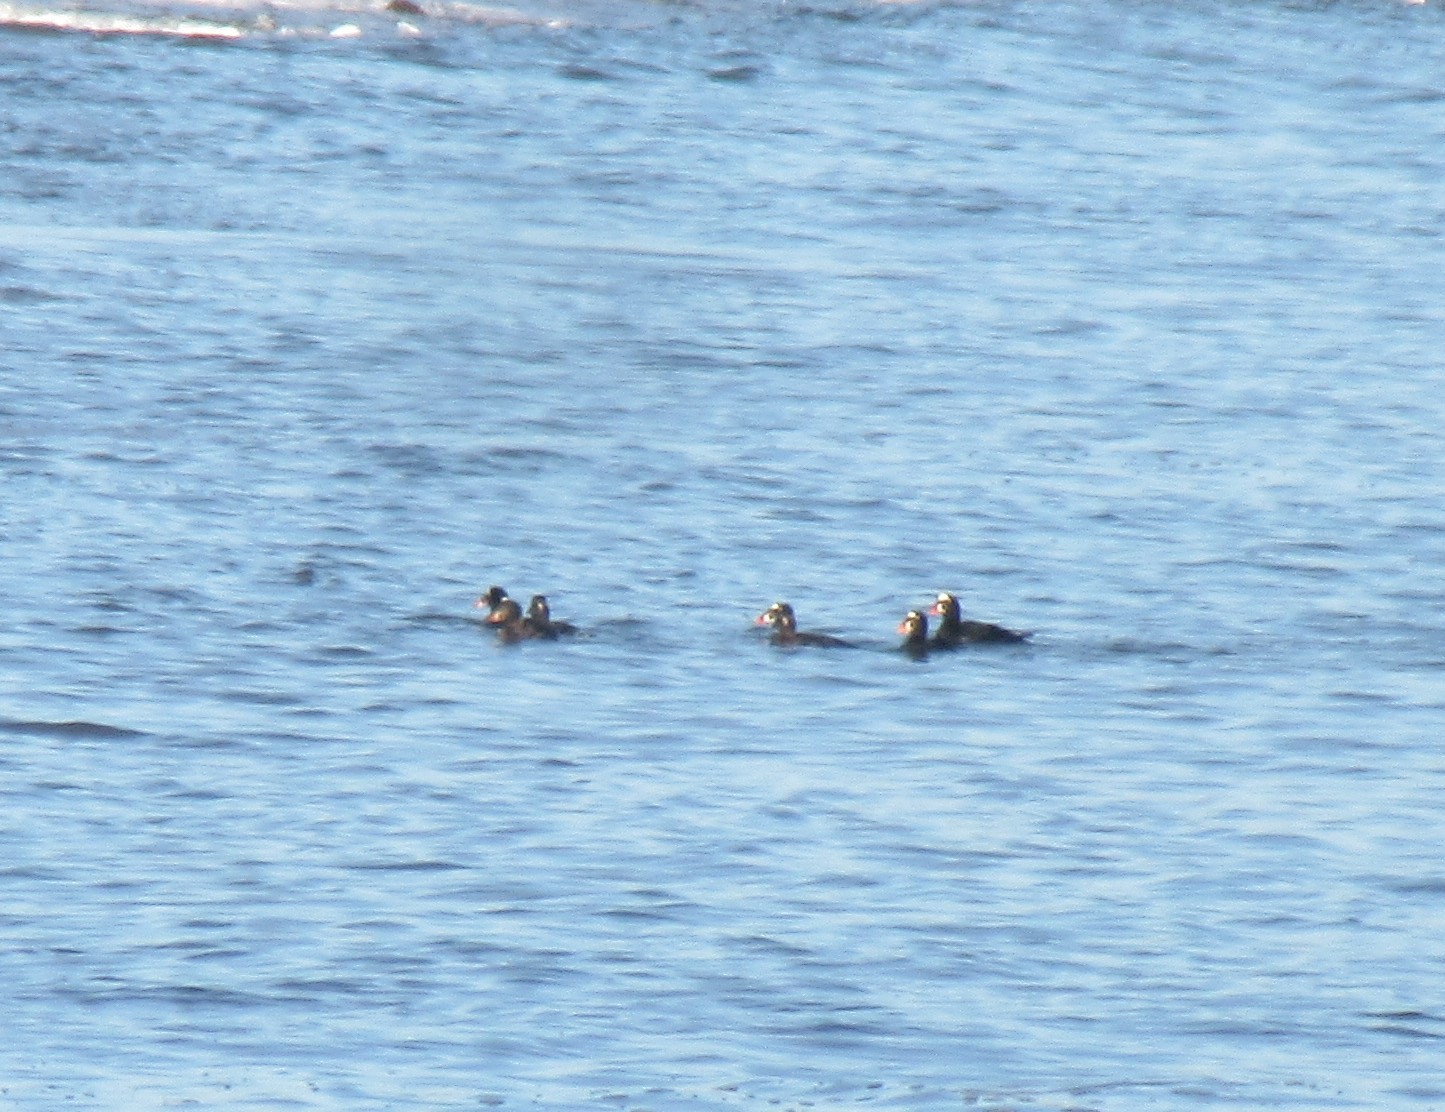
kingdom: Animalia
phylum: Chordata
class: Aves
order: Anseriformes
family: Anatidae
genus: Melanitta
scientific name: Melanitta perspicillata
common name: Surf scoter
